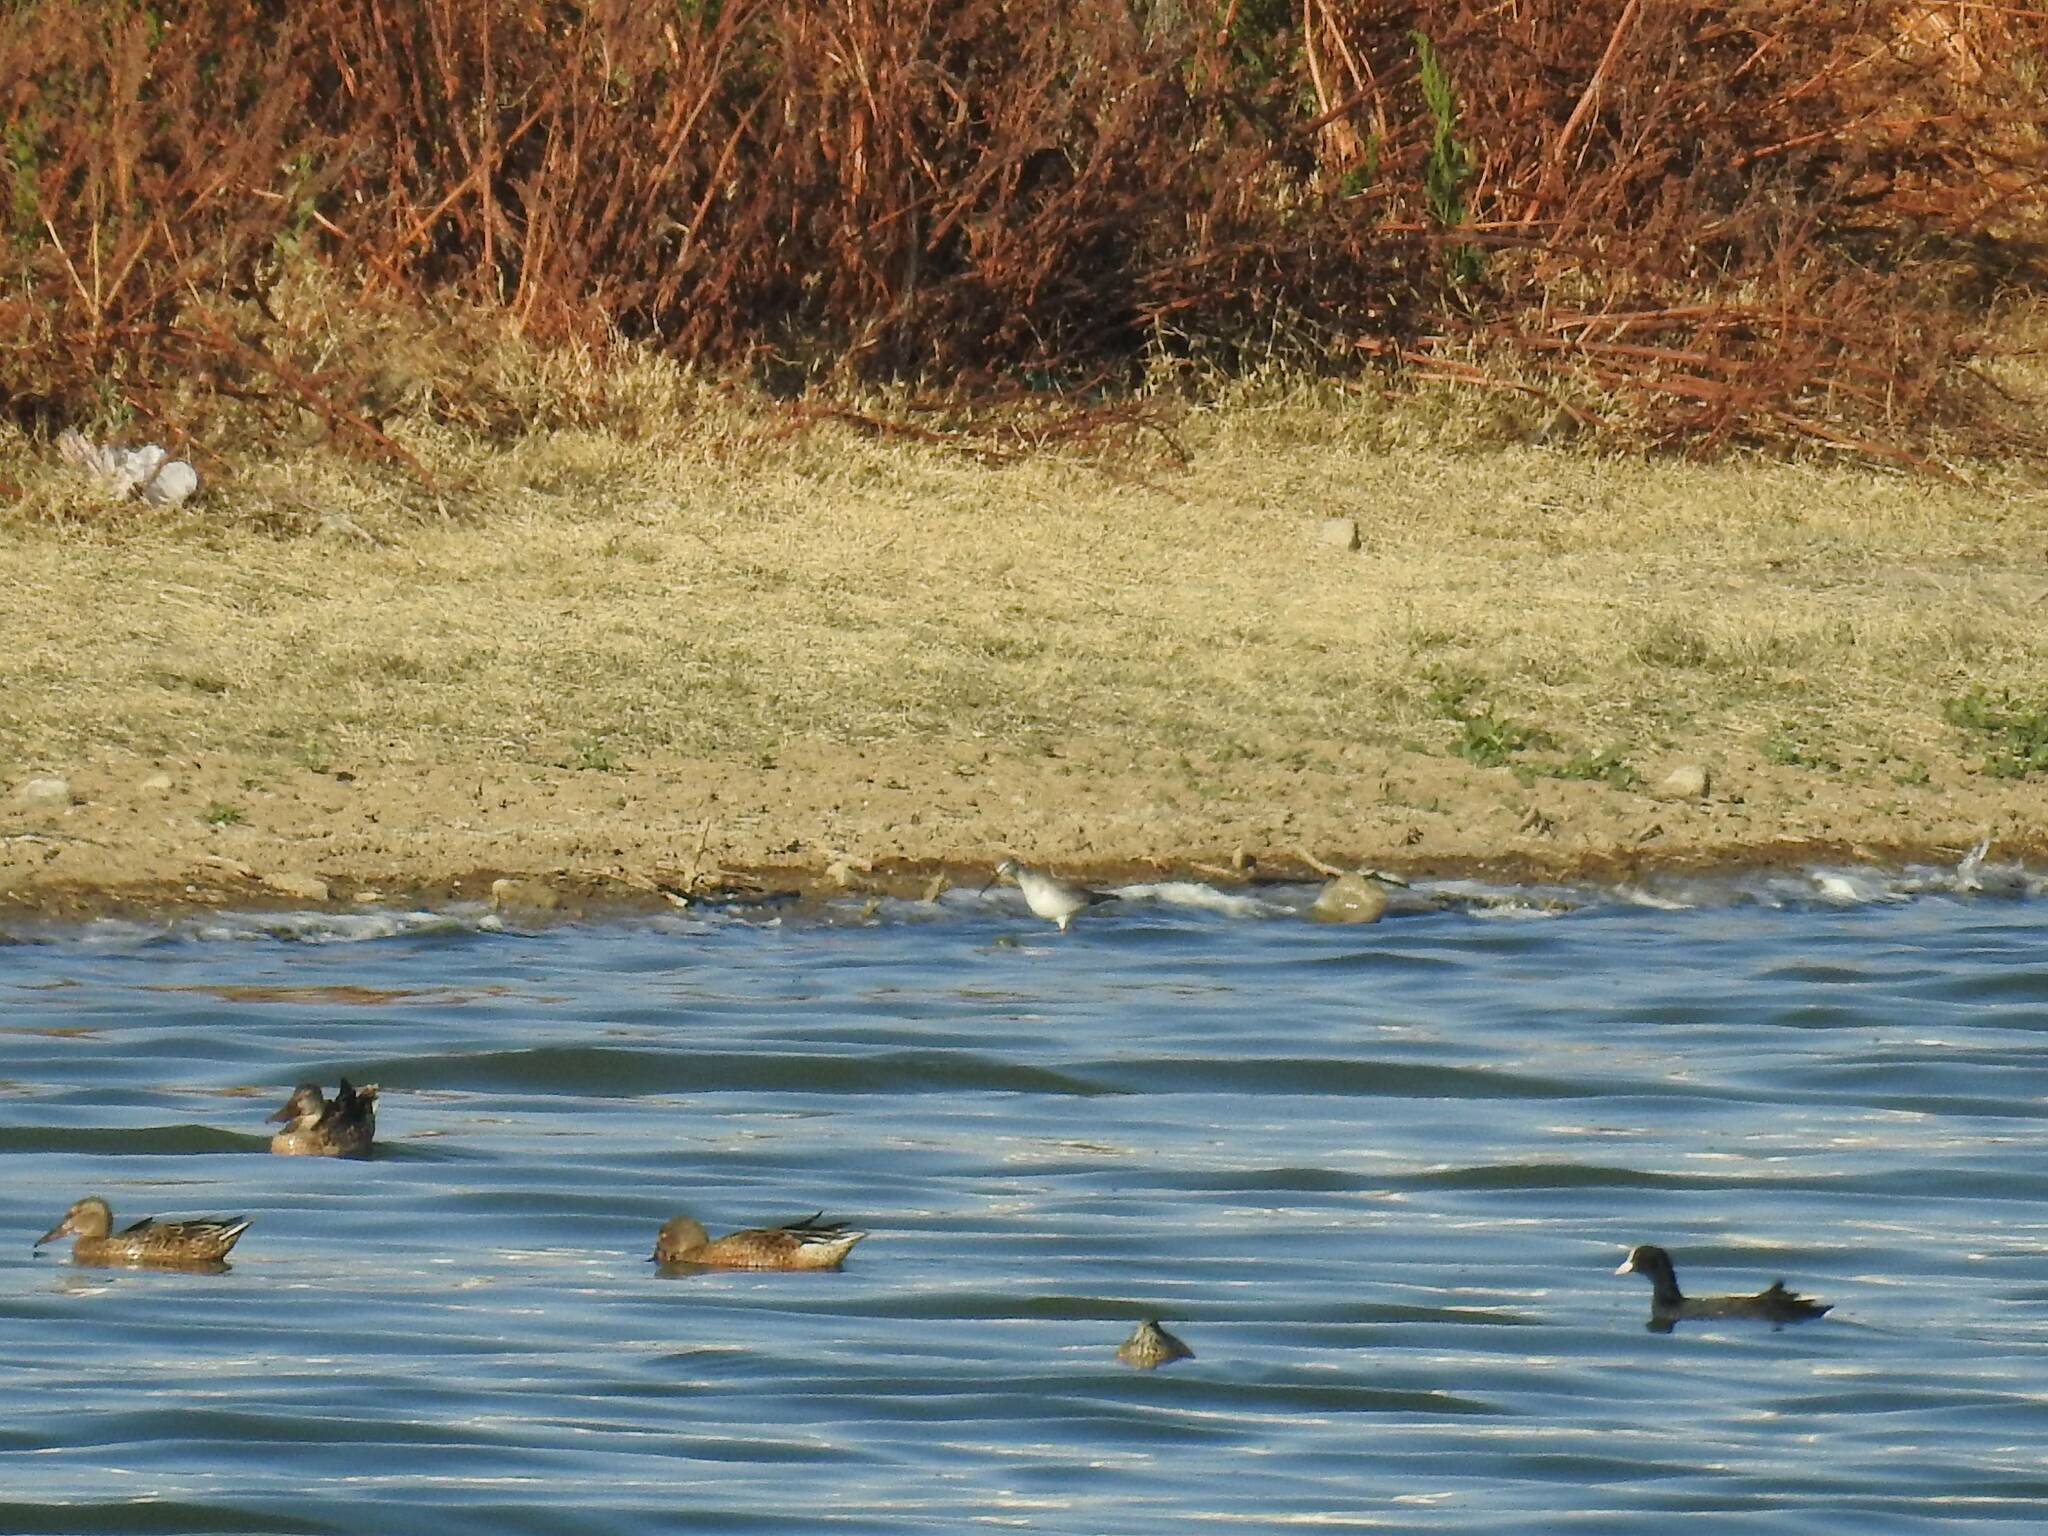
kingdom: Animalia
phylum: Chordata
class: Aves
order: Anseriformes
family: Anatidae
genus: Spatula
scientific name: Spatula clypeata
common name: Northern shoveler
